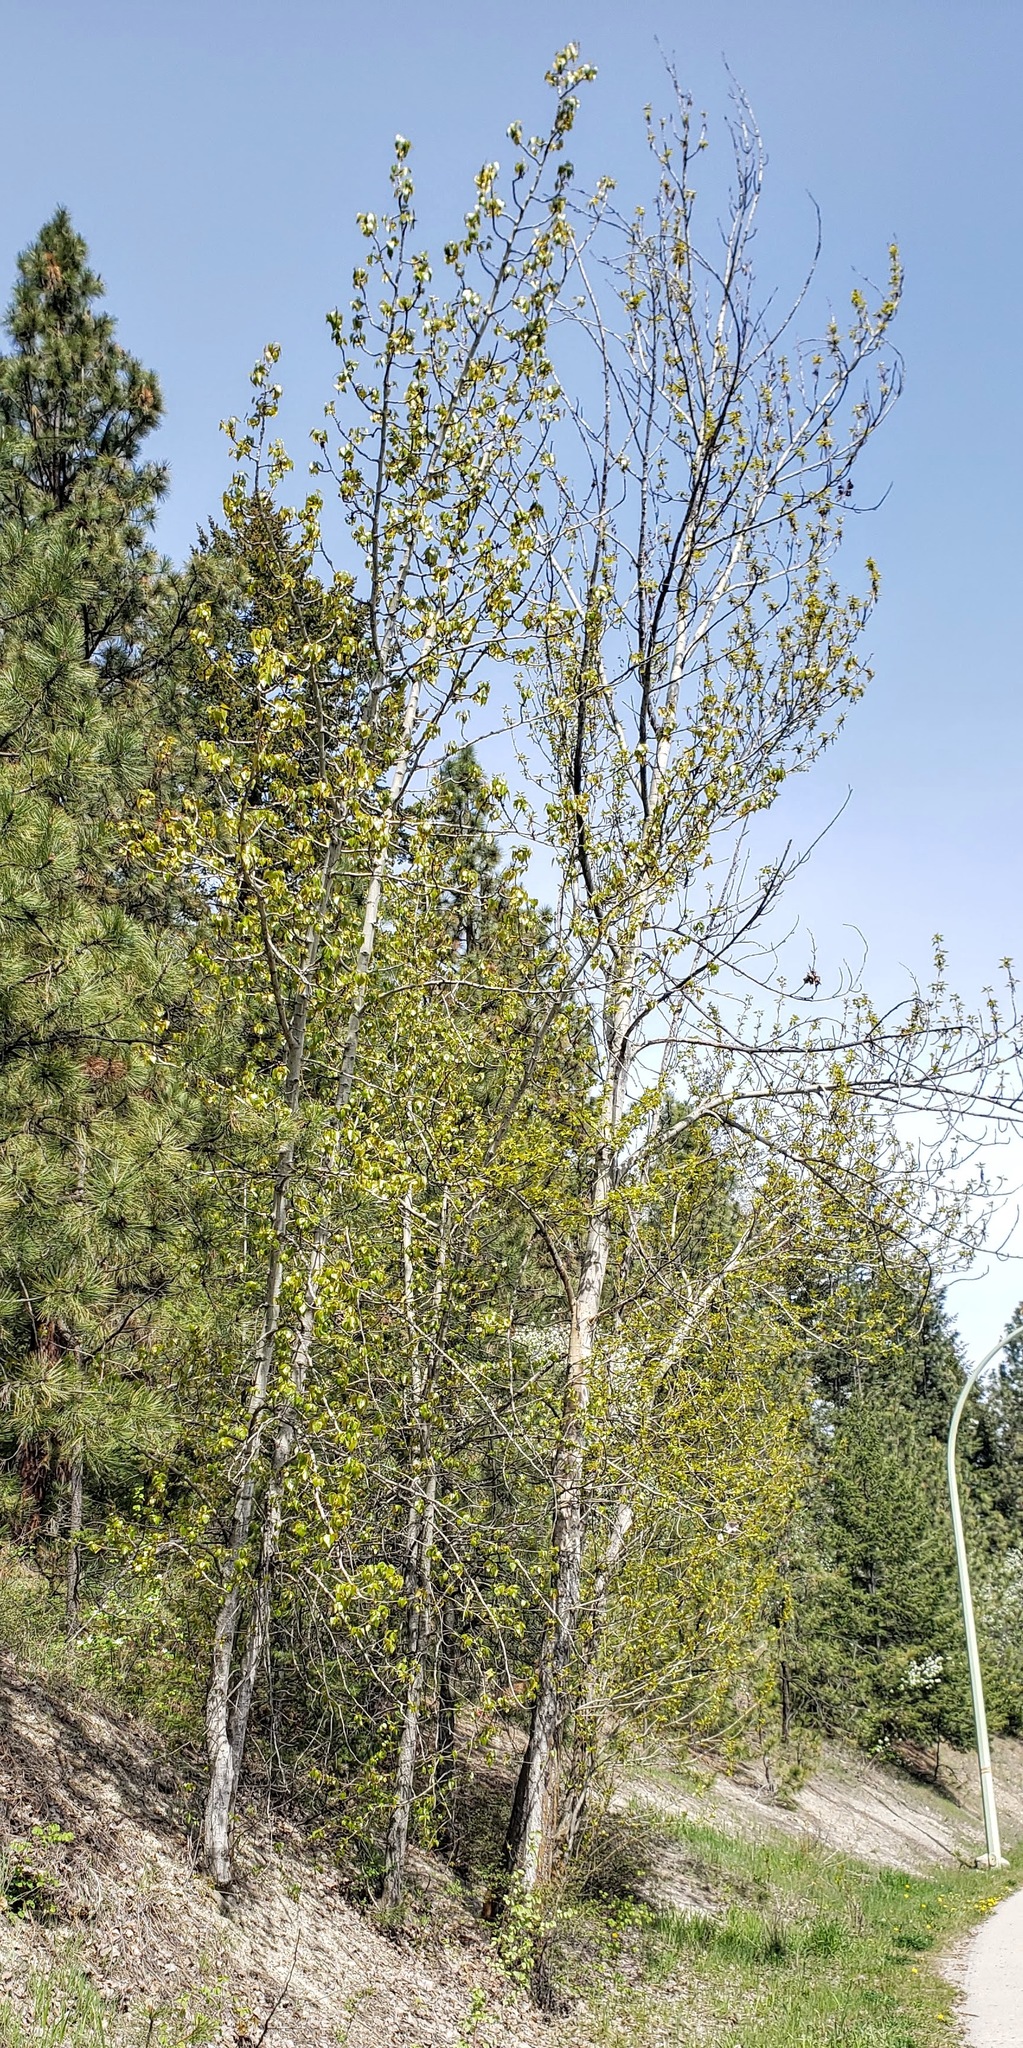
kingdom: Plantae
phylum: Tracheophyta
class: Magnoliopsida
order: Malpighiales
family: Salicaceae
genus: Populus
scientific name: Populus trichocarpa
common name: Black cottonwood
